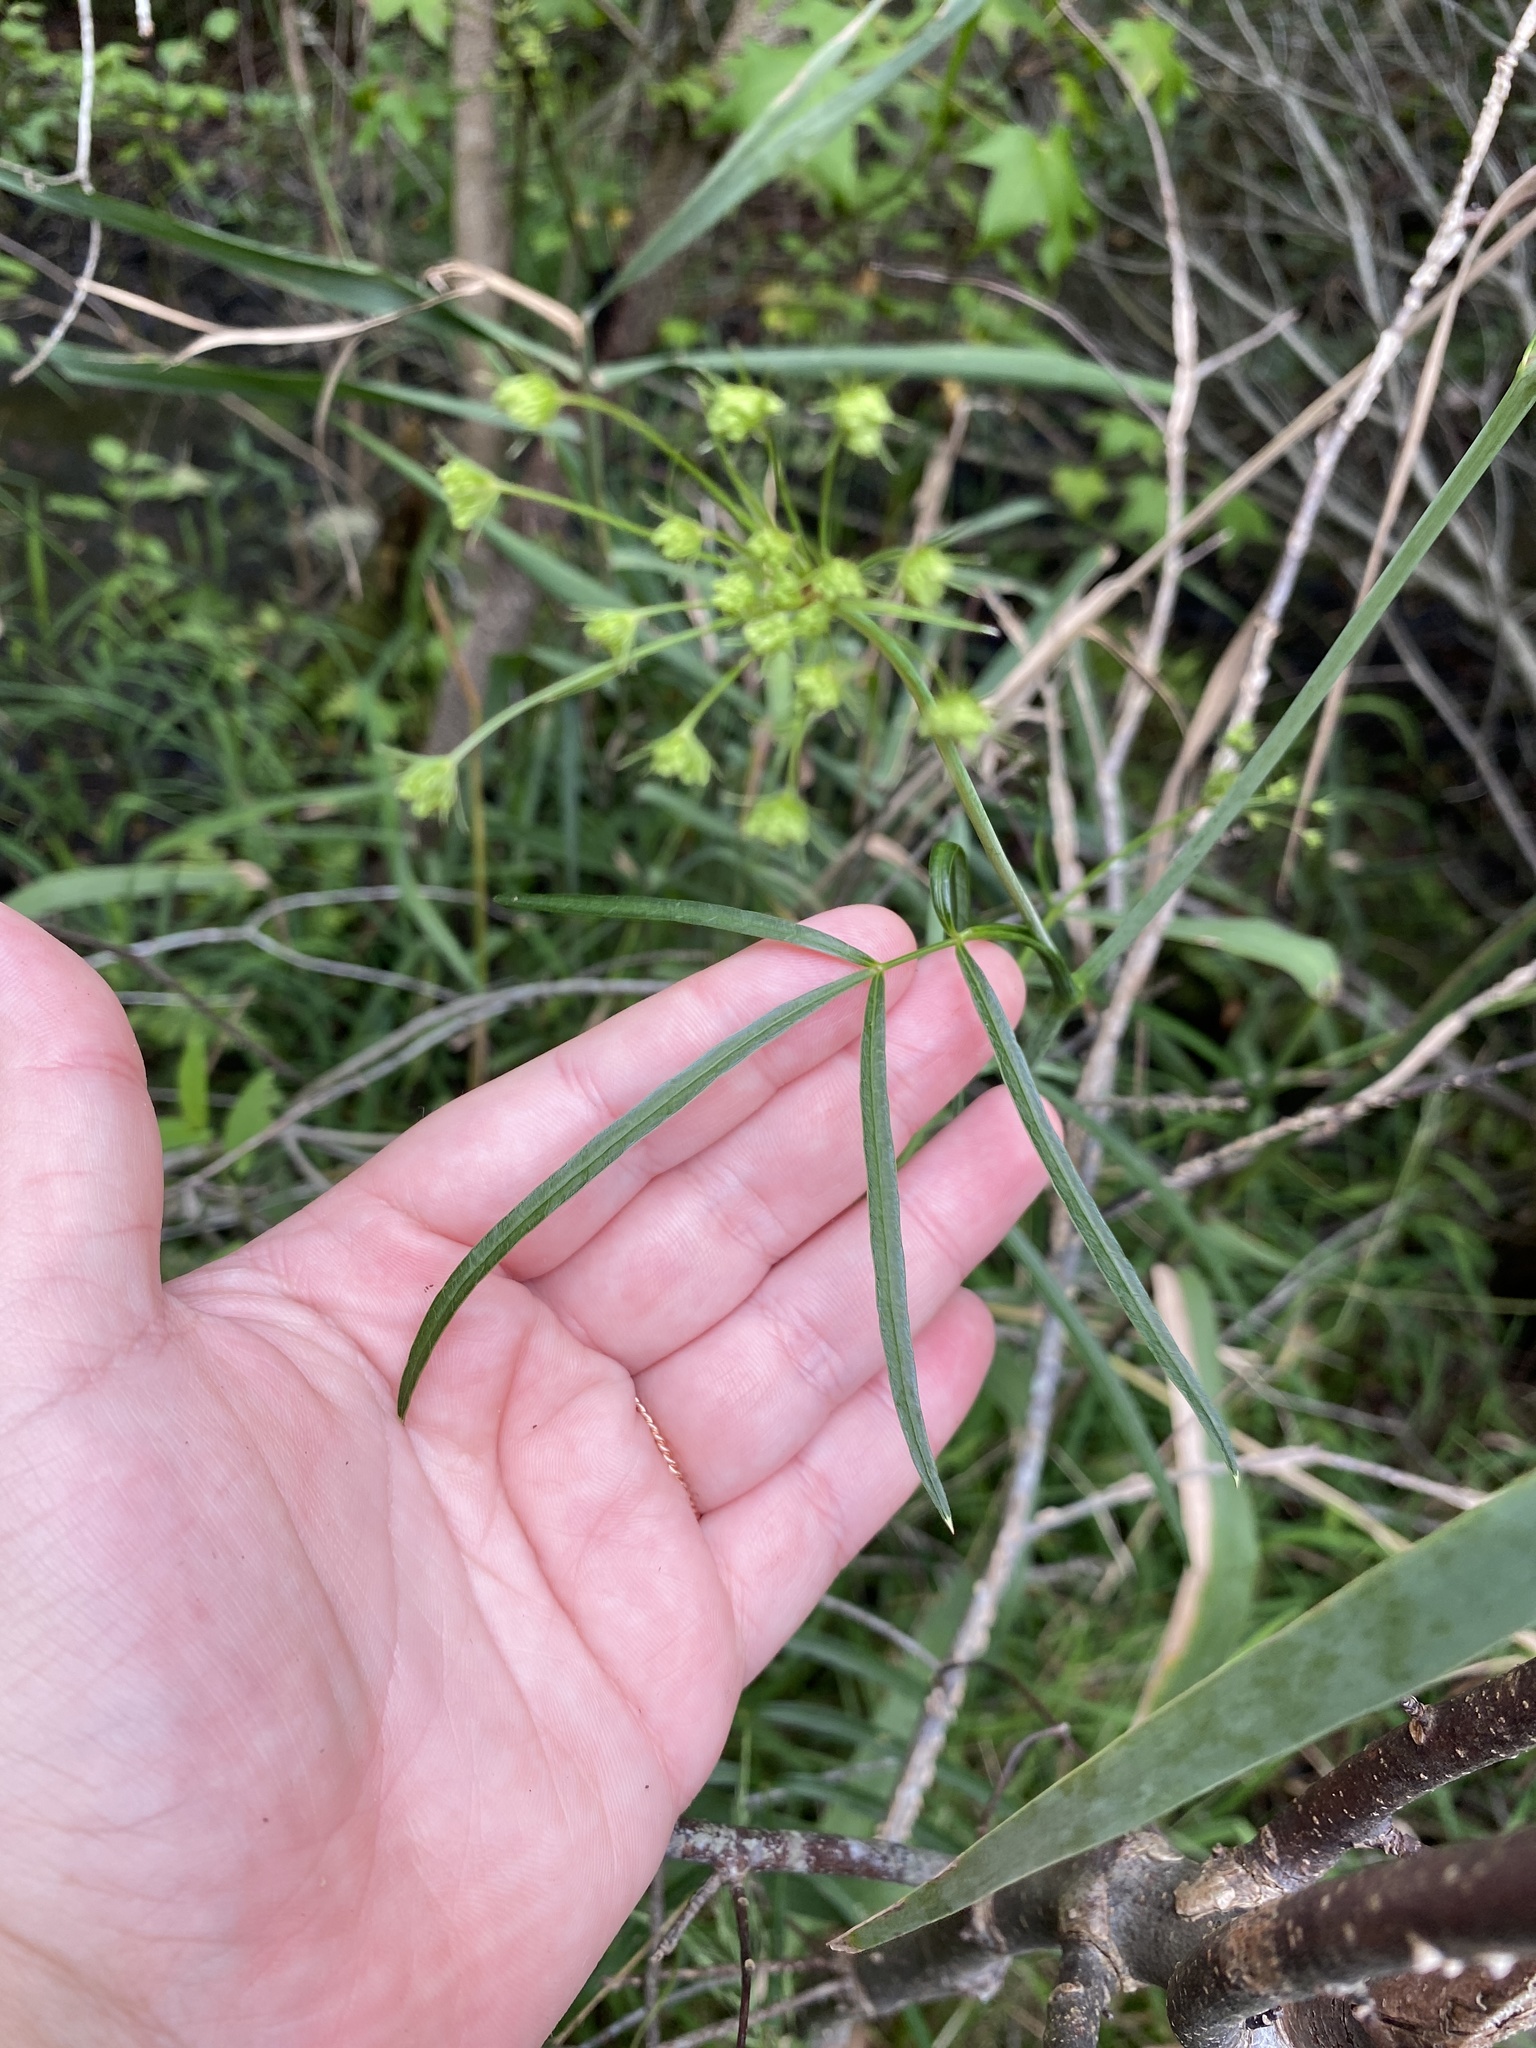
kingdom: Plantae
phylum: Tracheophyta
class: Magnoliopsida
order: Apiales
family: Apiaceae
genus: Oxypolis
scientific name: Oxypolis rigidior
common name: Cowbane
